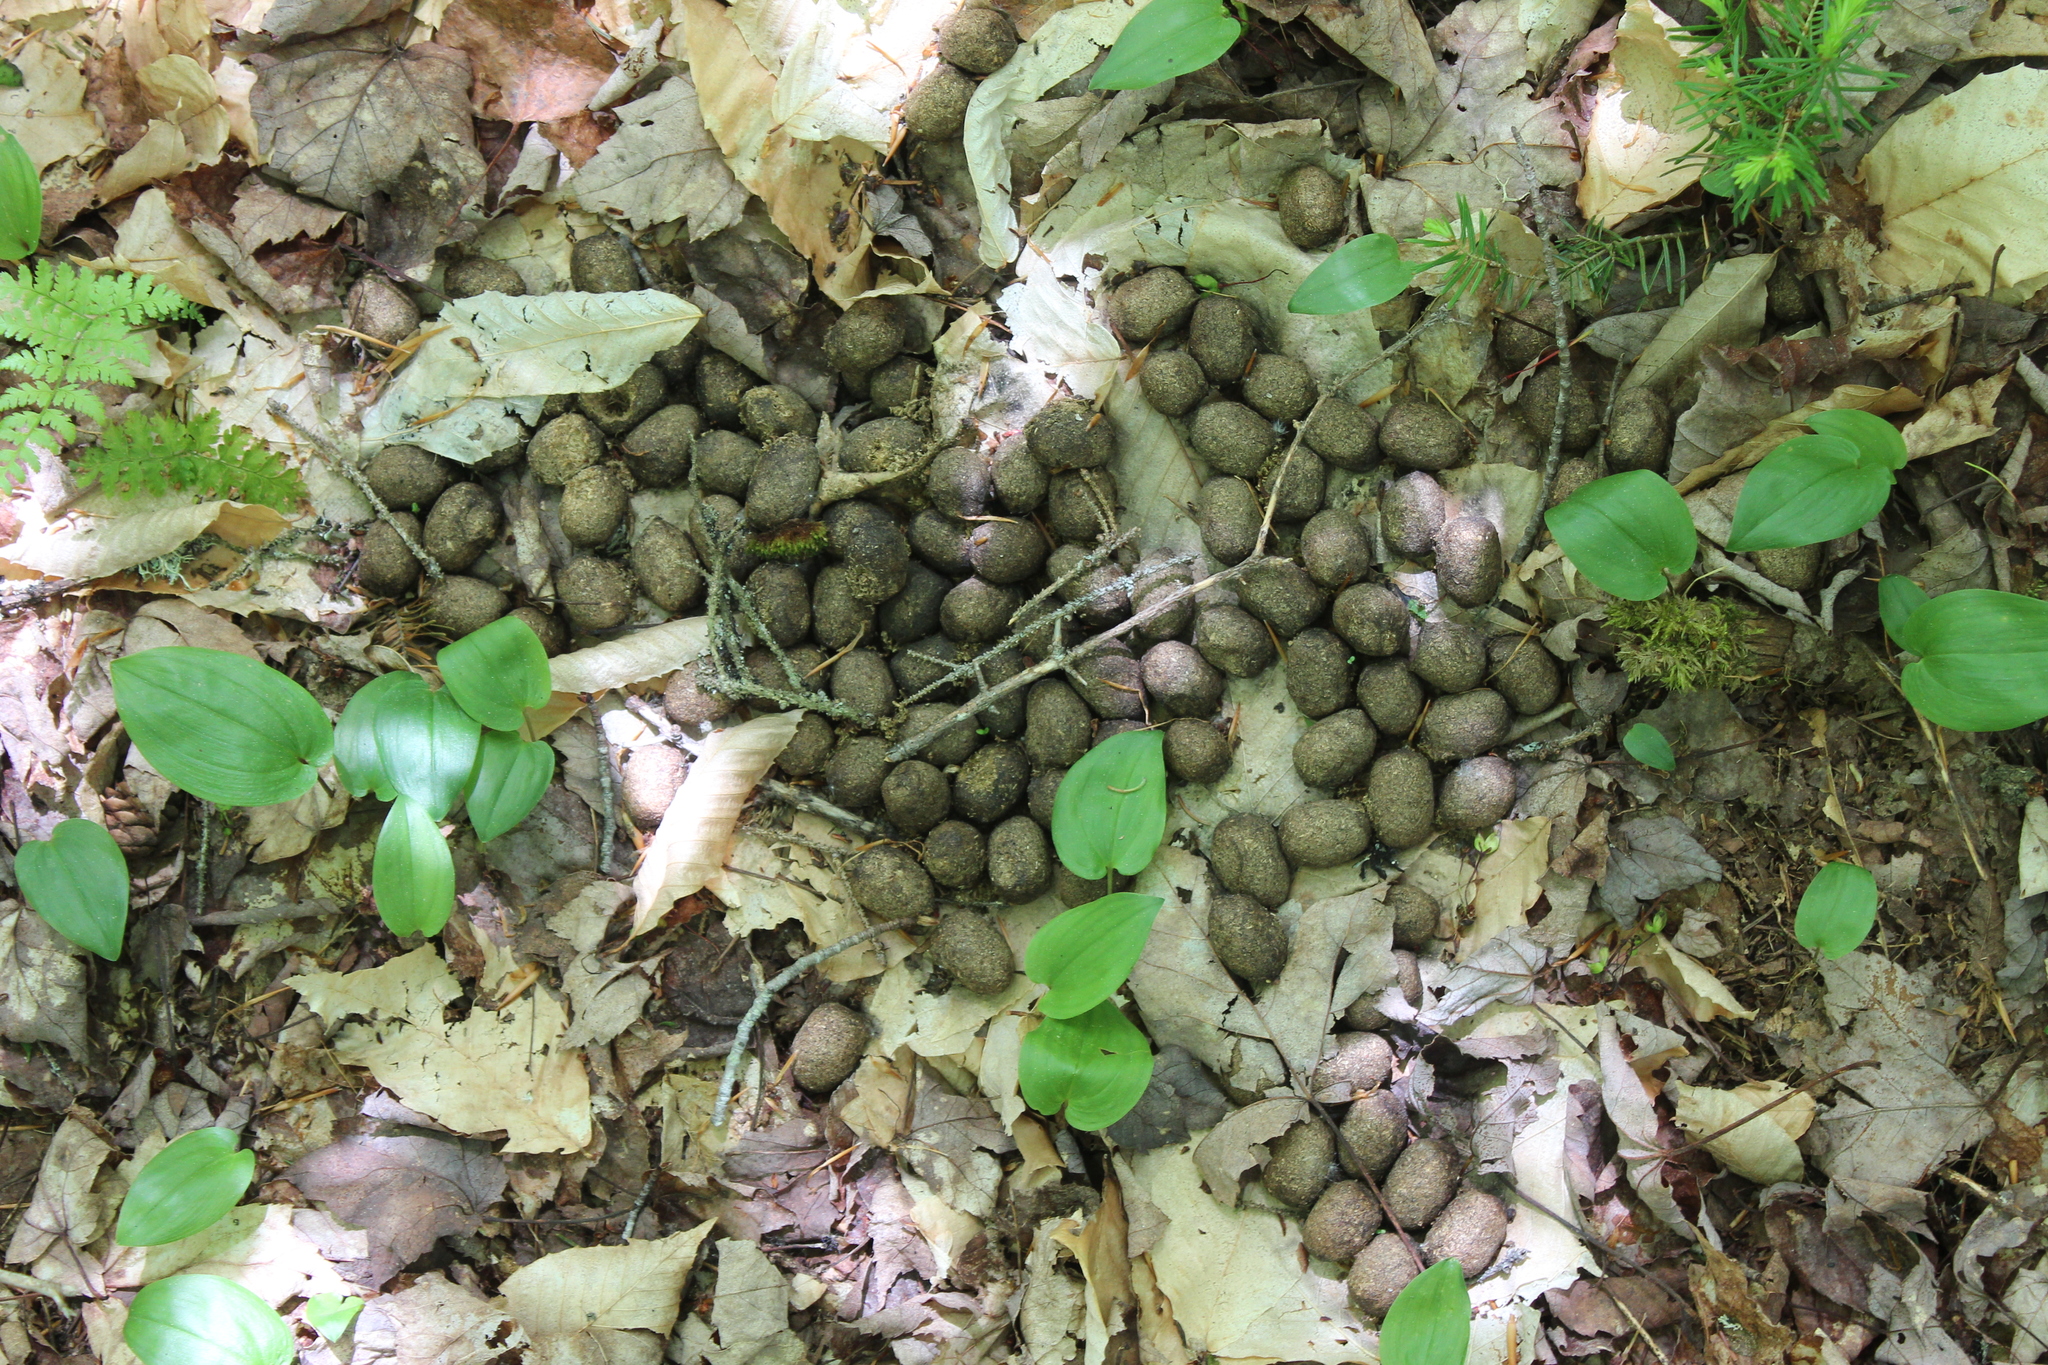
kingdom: Animalia
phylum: Chordata
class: Mammalia
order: Artiodactyla
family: Cervidae
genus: Alces
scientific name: Alces alces
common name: Moose
